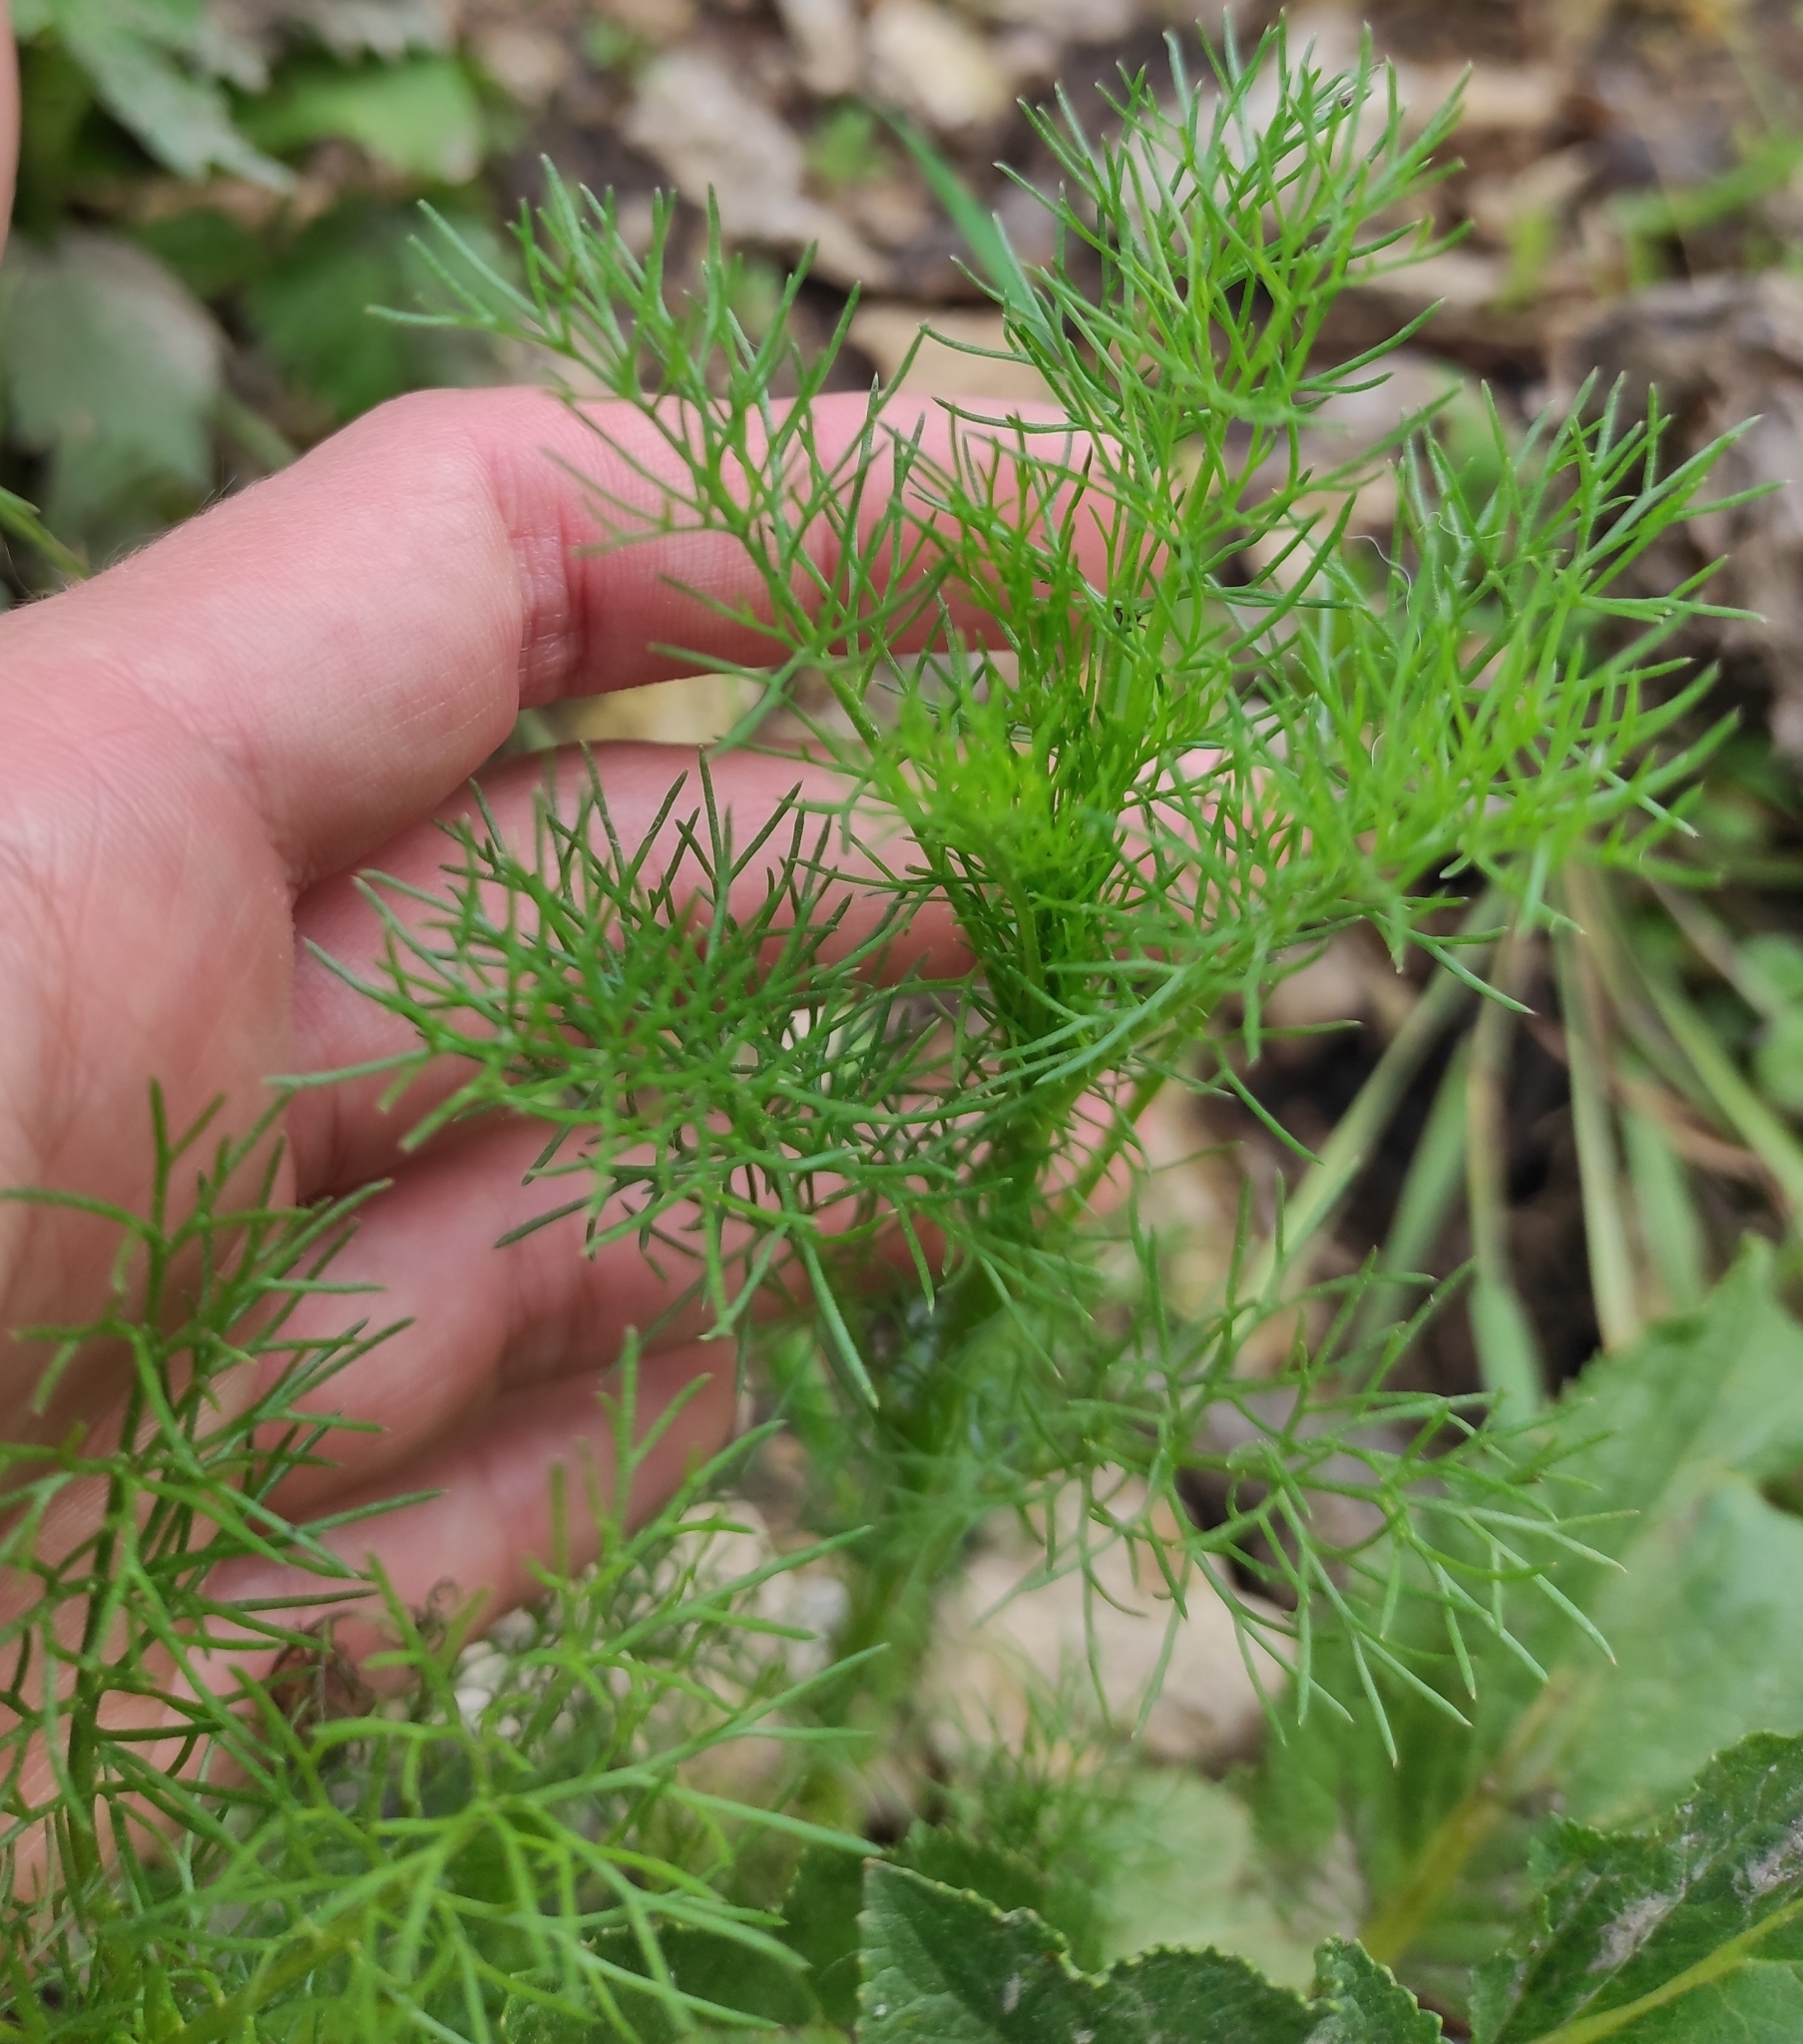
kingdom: Plantae
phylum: Tracheophyta
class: Magnoliopsida
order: Asterales
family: Asteraceae
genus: Tripleurospermum
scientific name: Tripleurospermum inodorum
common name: Scentless mayweed
